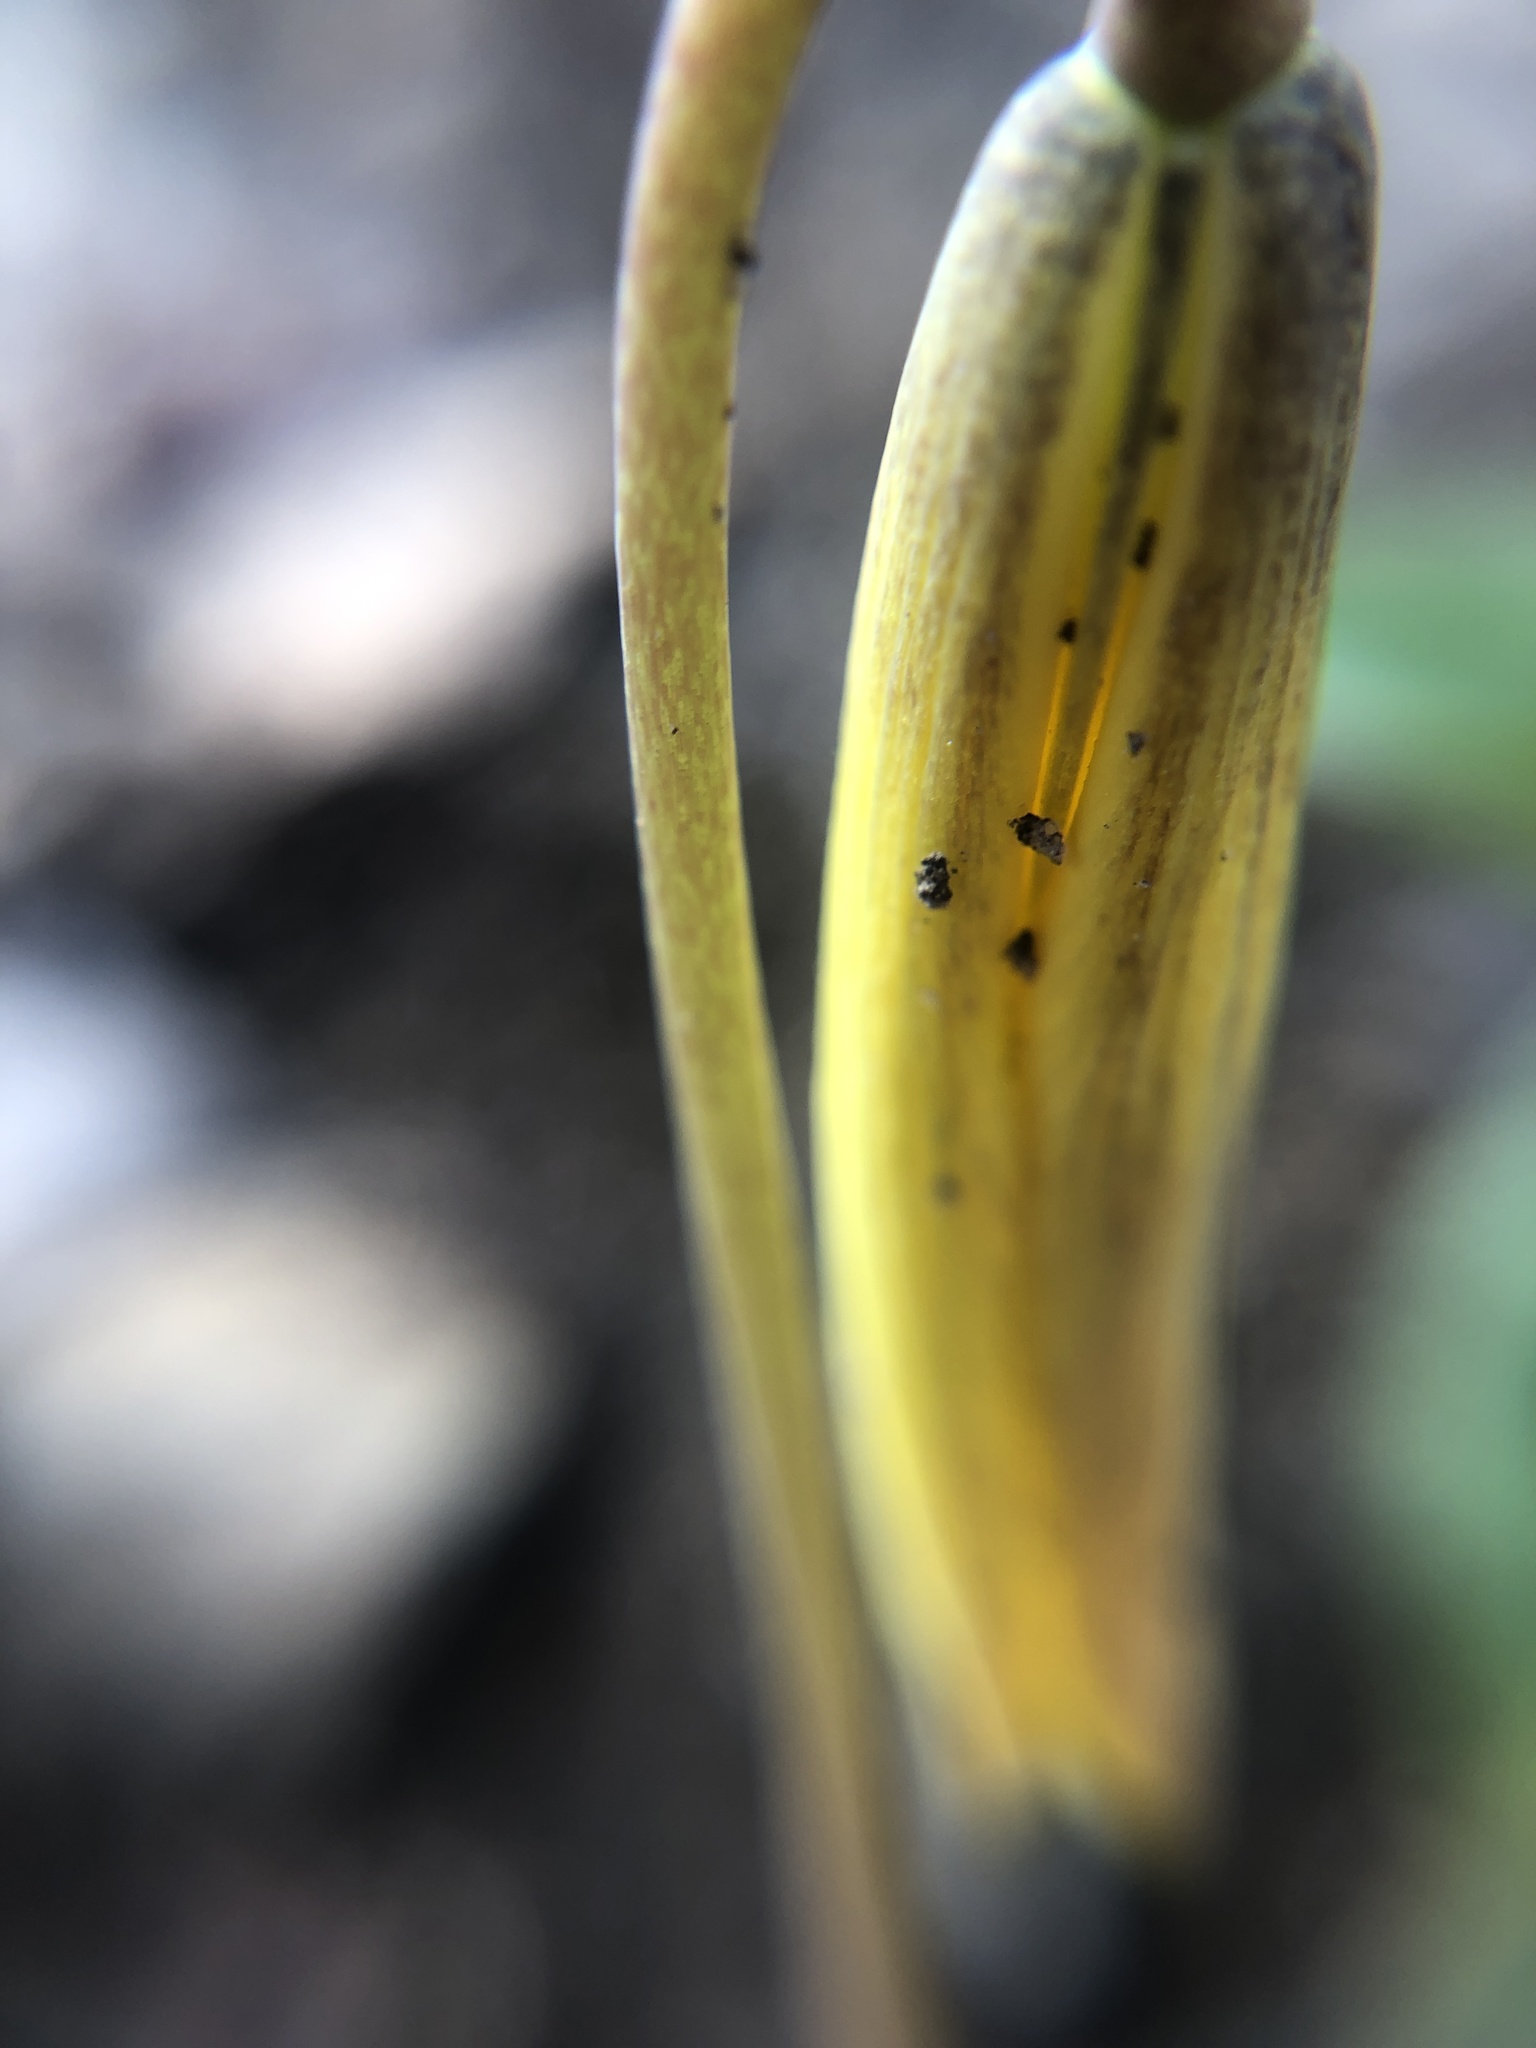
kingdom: Plantae
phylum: Tracheophyta
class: Liliopsida
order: Liliales
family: Liliaceae
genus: Erythronium
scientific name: Erythronium americanum
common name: Yellow adder's-tongue
